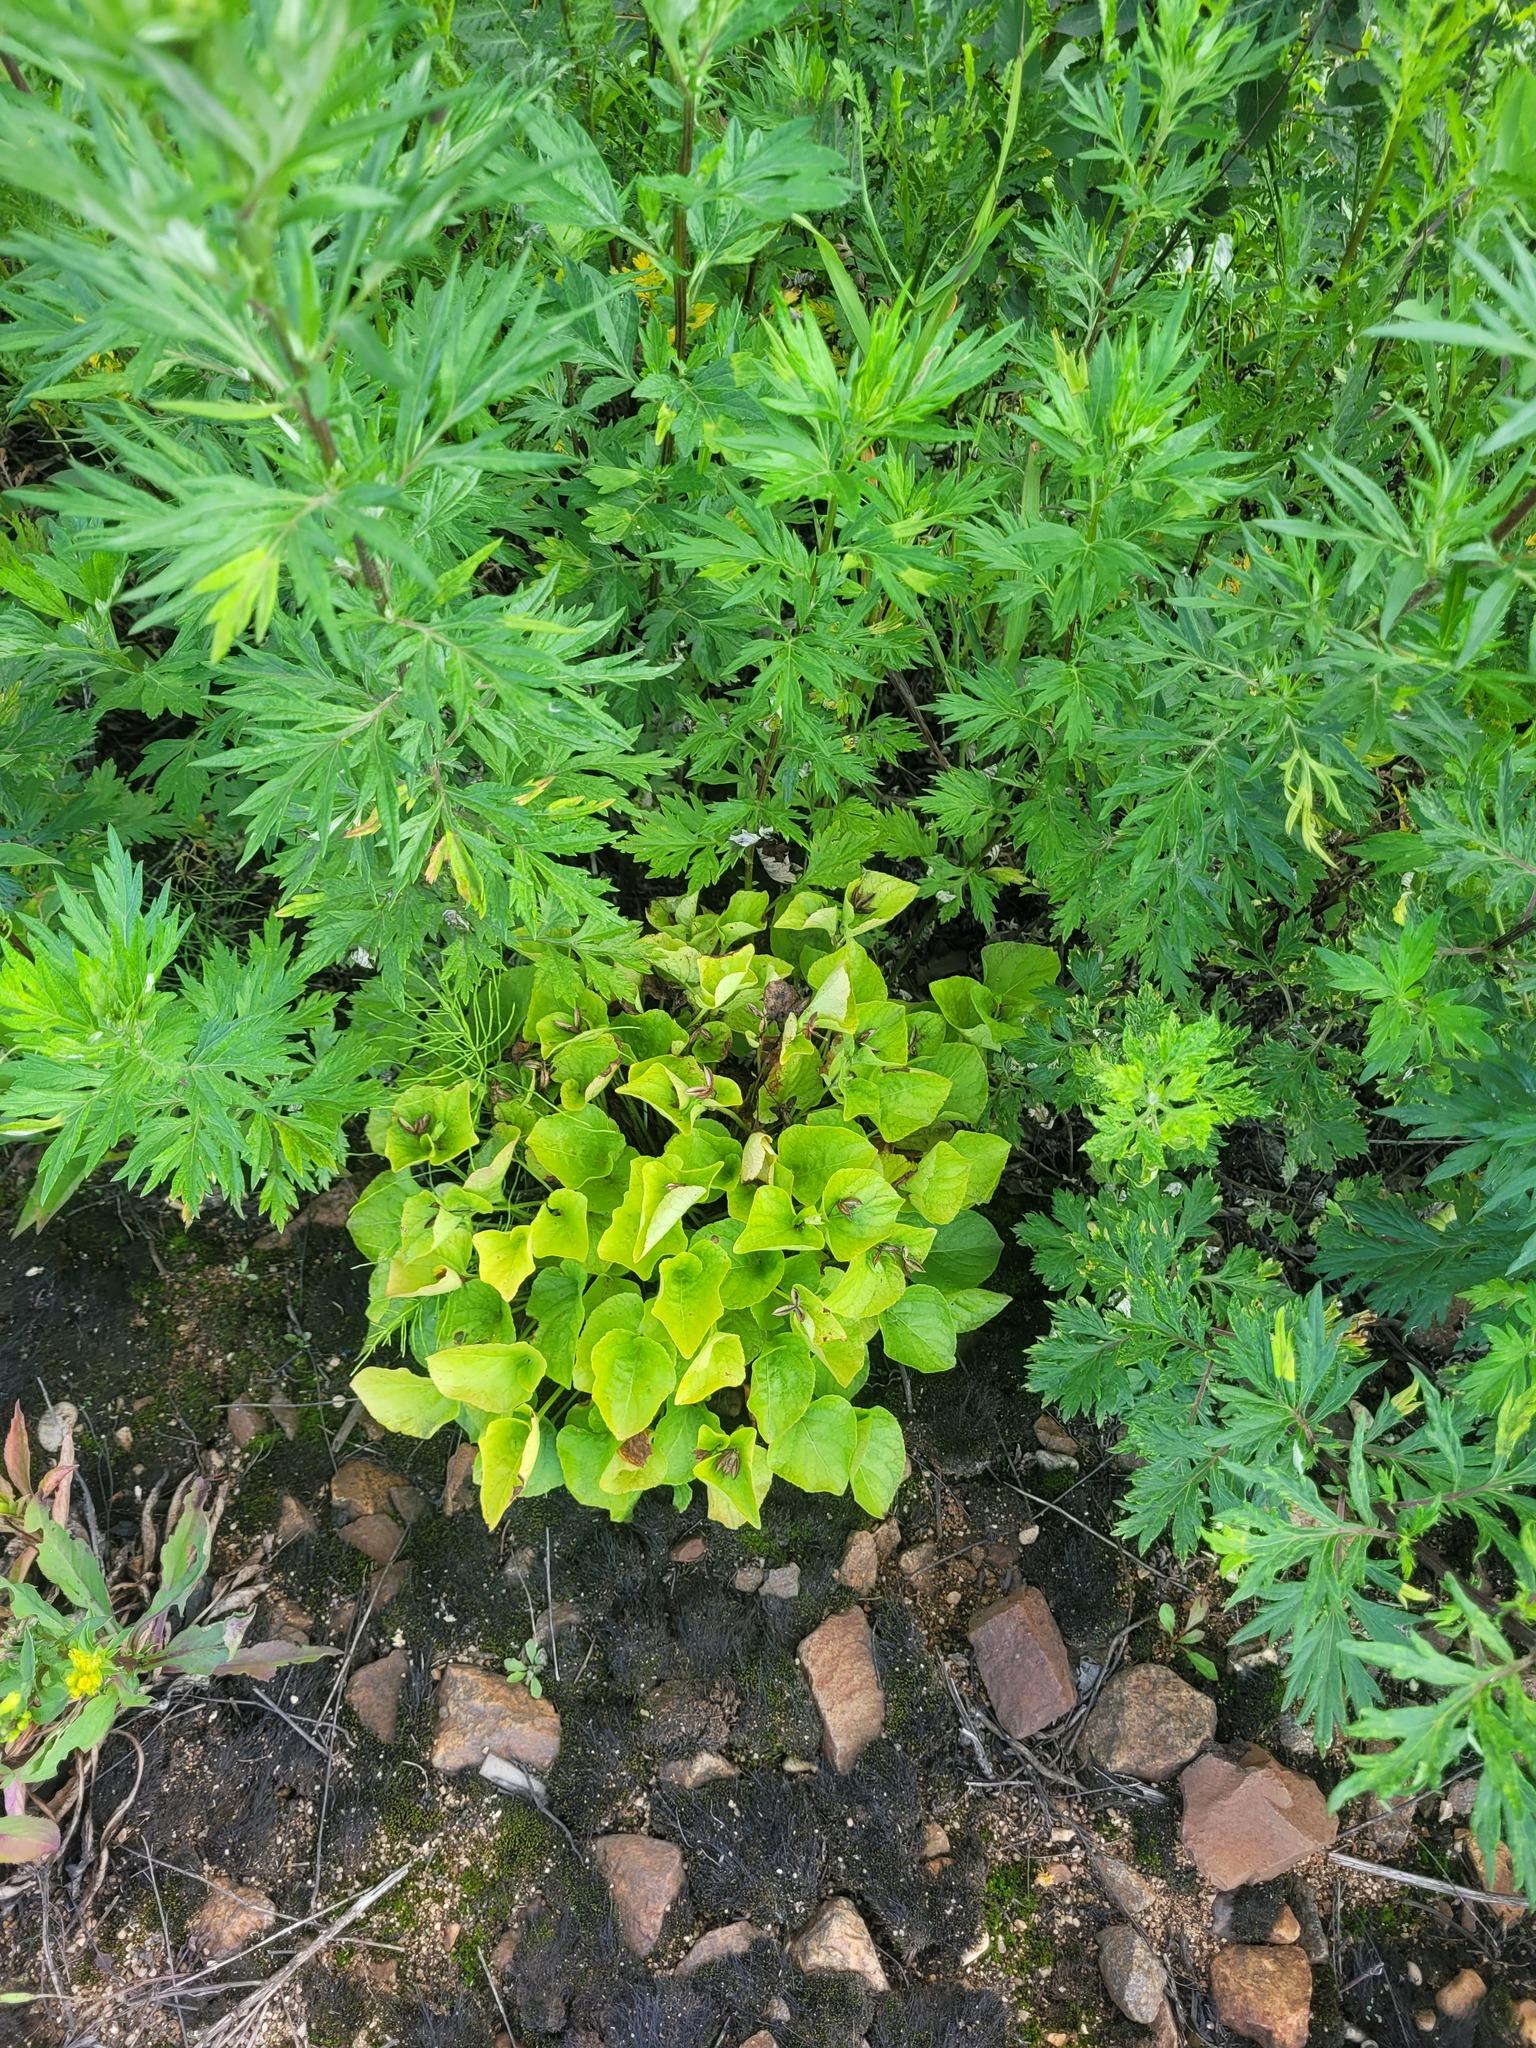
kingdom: Plantae
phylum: Tracheophyta
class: Magnoliopsida
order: Malpighiales
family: Violaceae
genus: Viola
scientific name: Viola mirabilis
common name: Wonder violet
